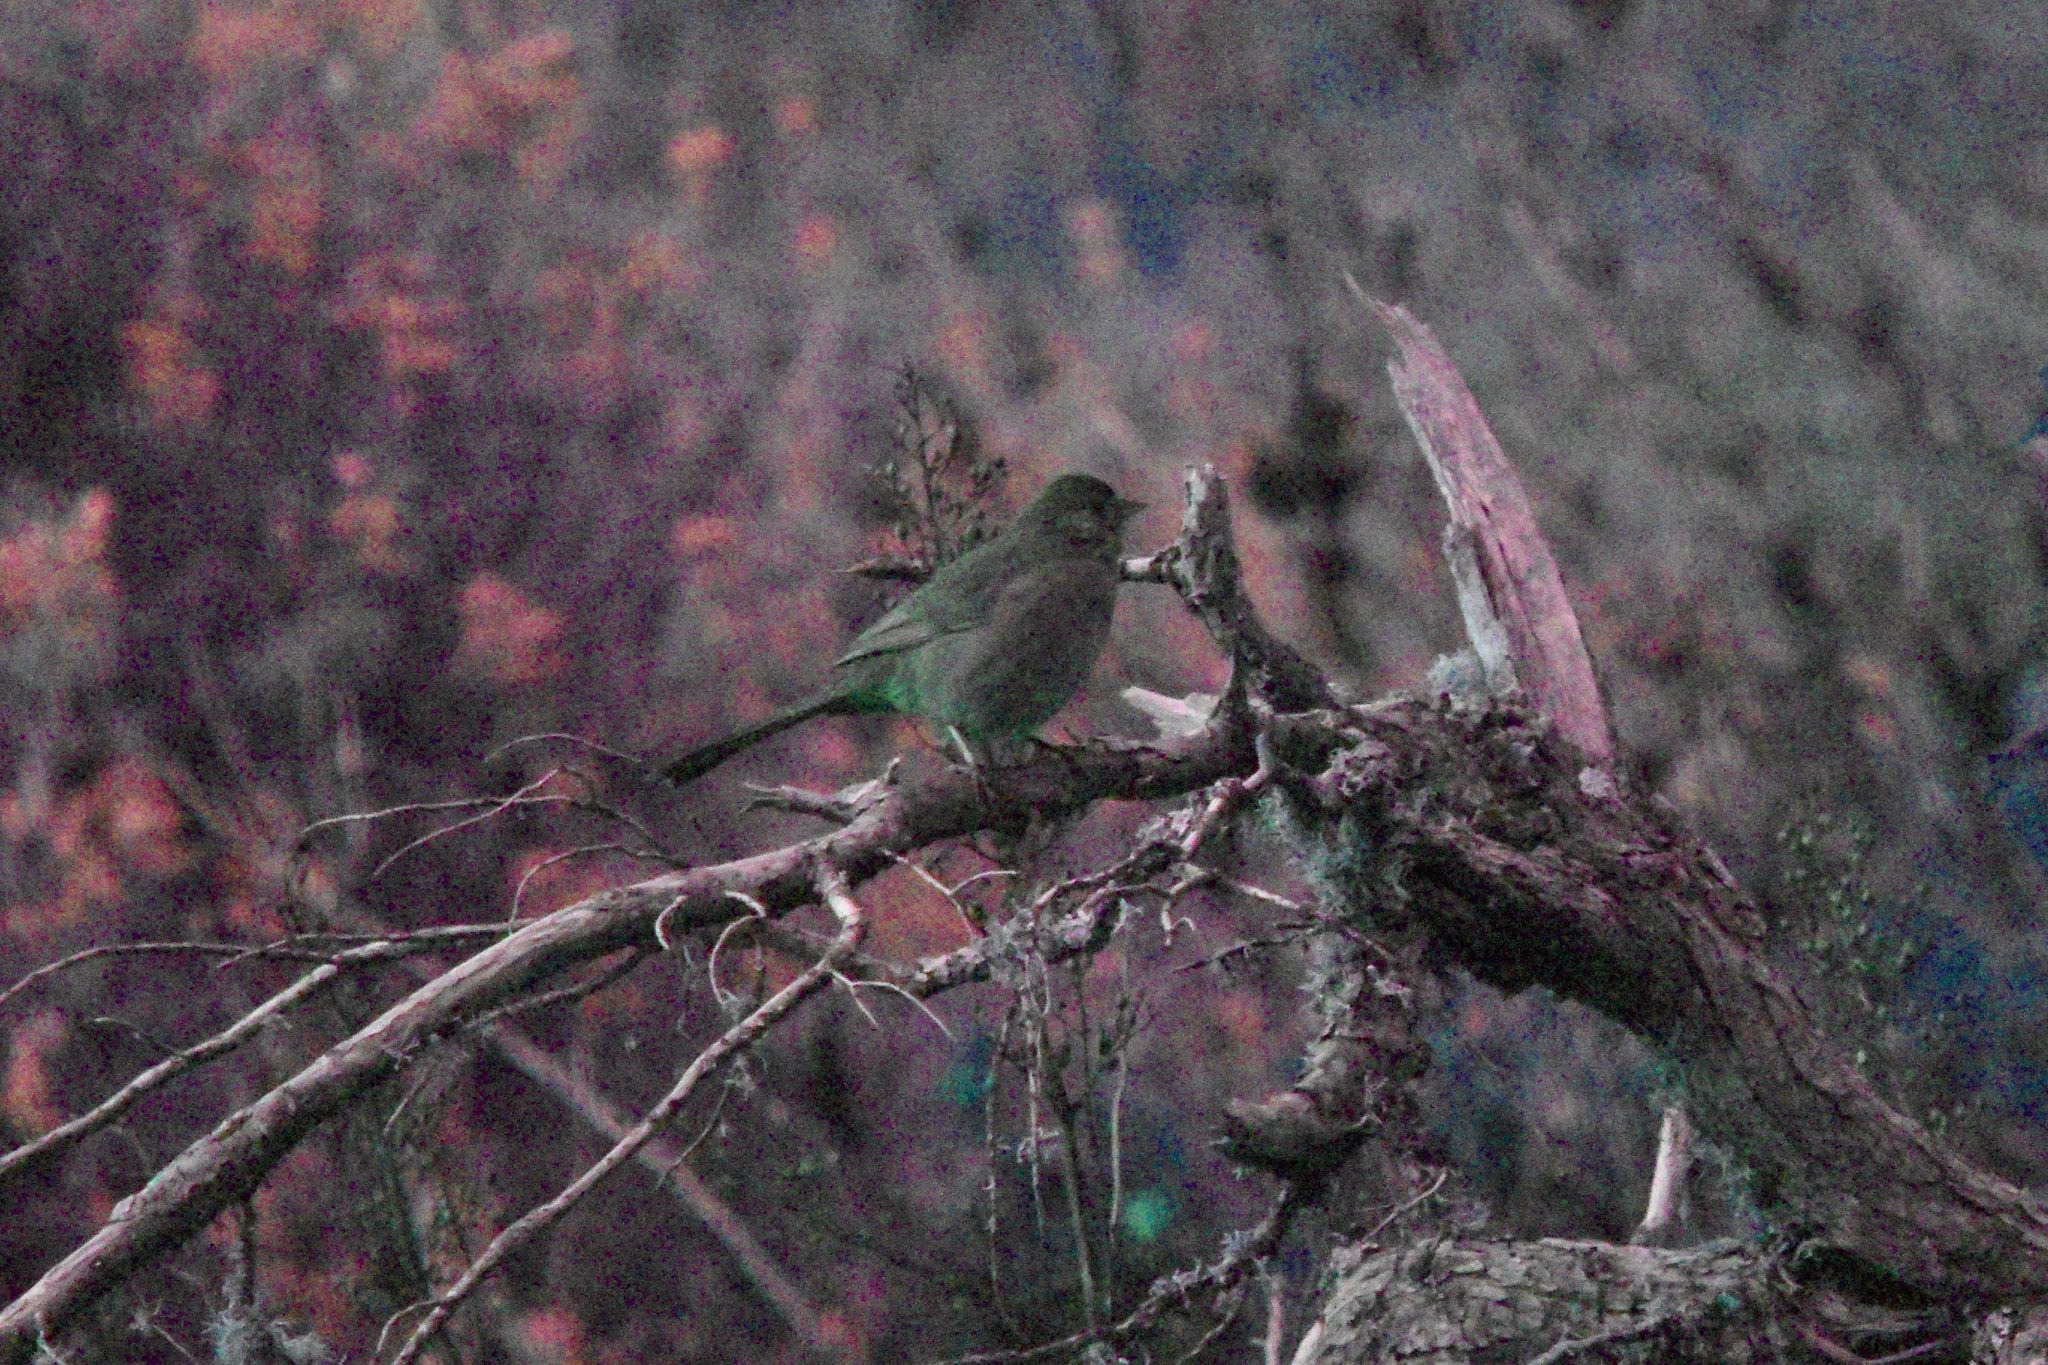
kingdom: Animalia
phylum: Chordata
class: Aves
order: Passeriformes
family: Passerellidae
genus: Melozone
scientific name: Melozone crissalis
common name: California towhee
